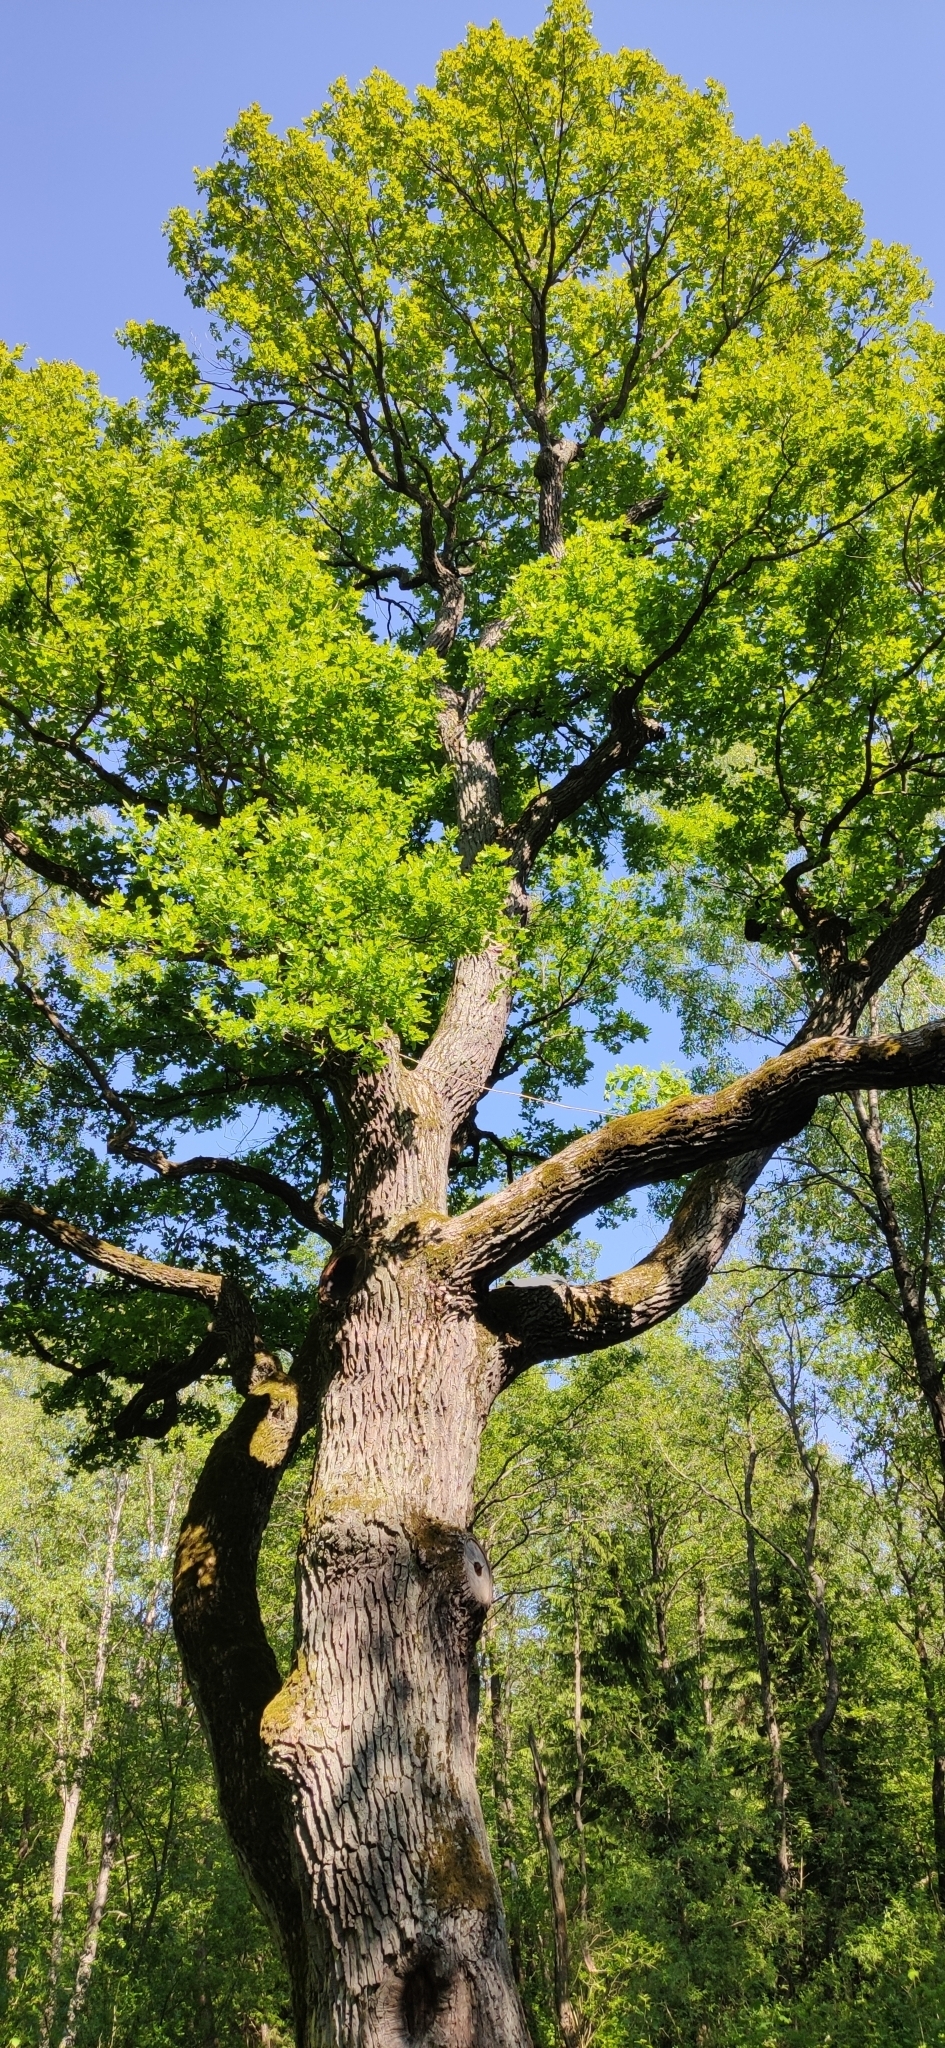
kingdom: Plantae
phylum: Tracheophyta
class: Magnoliopsida
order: Fagales
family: Fagaceae
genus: Quercus
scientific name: Quercus robur
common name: Pedunculate oak
